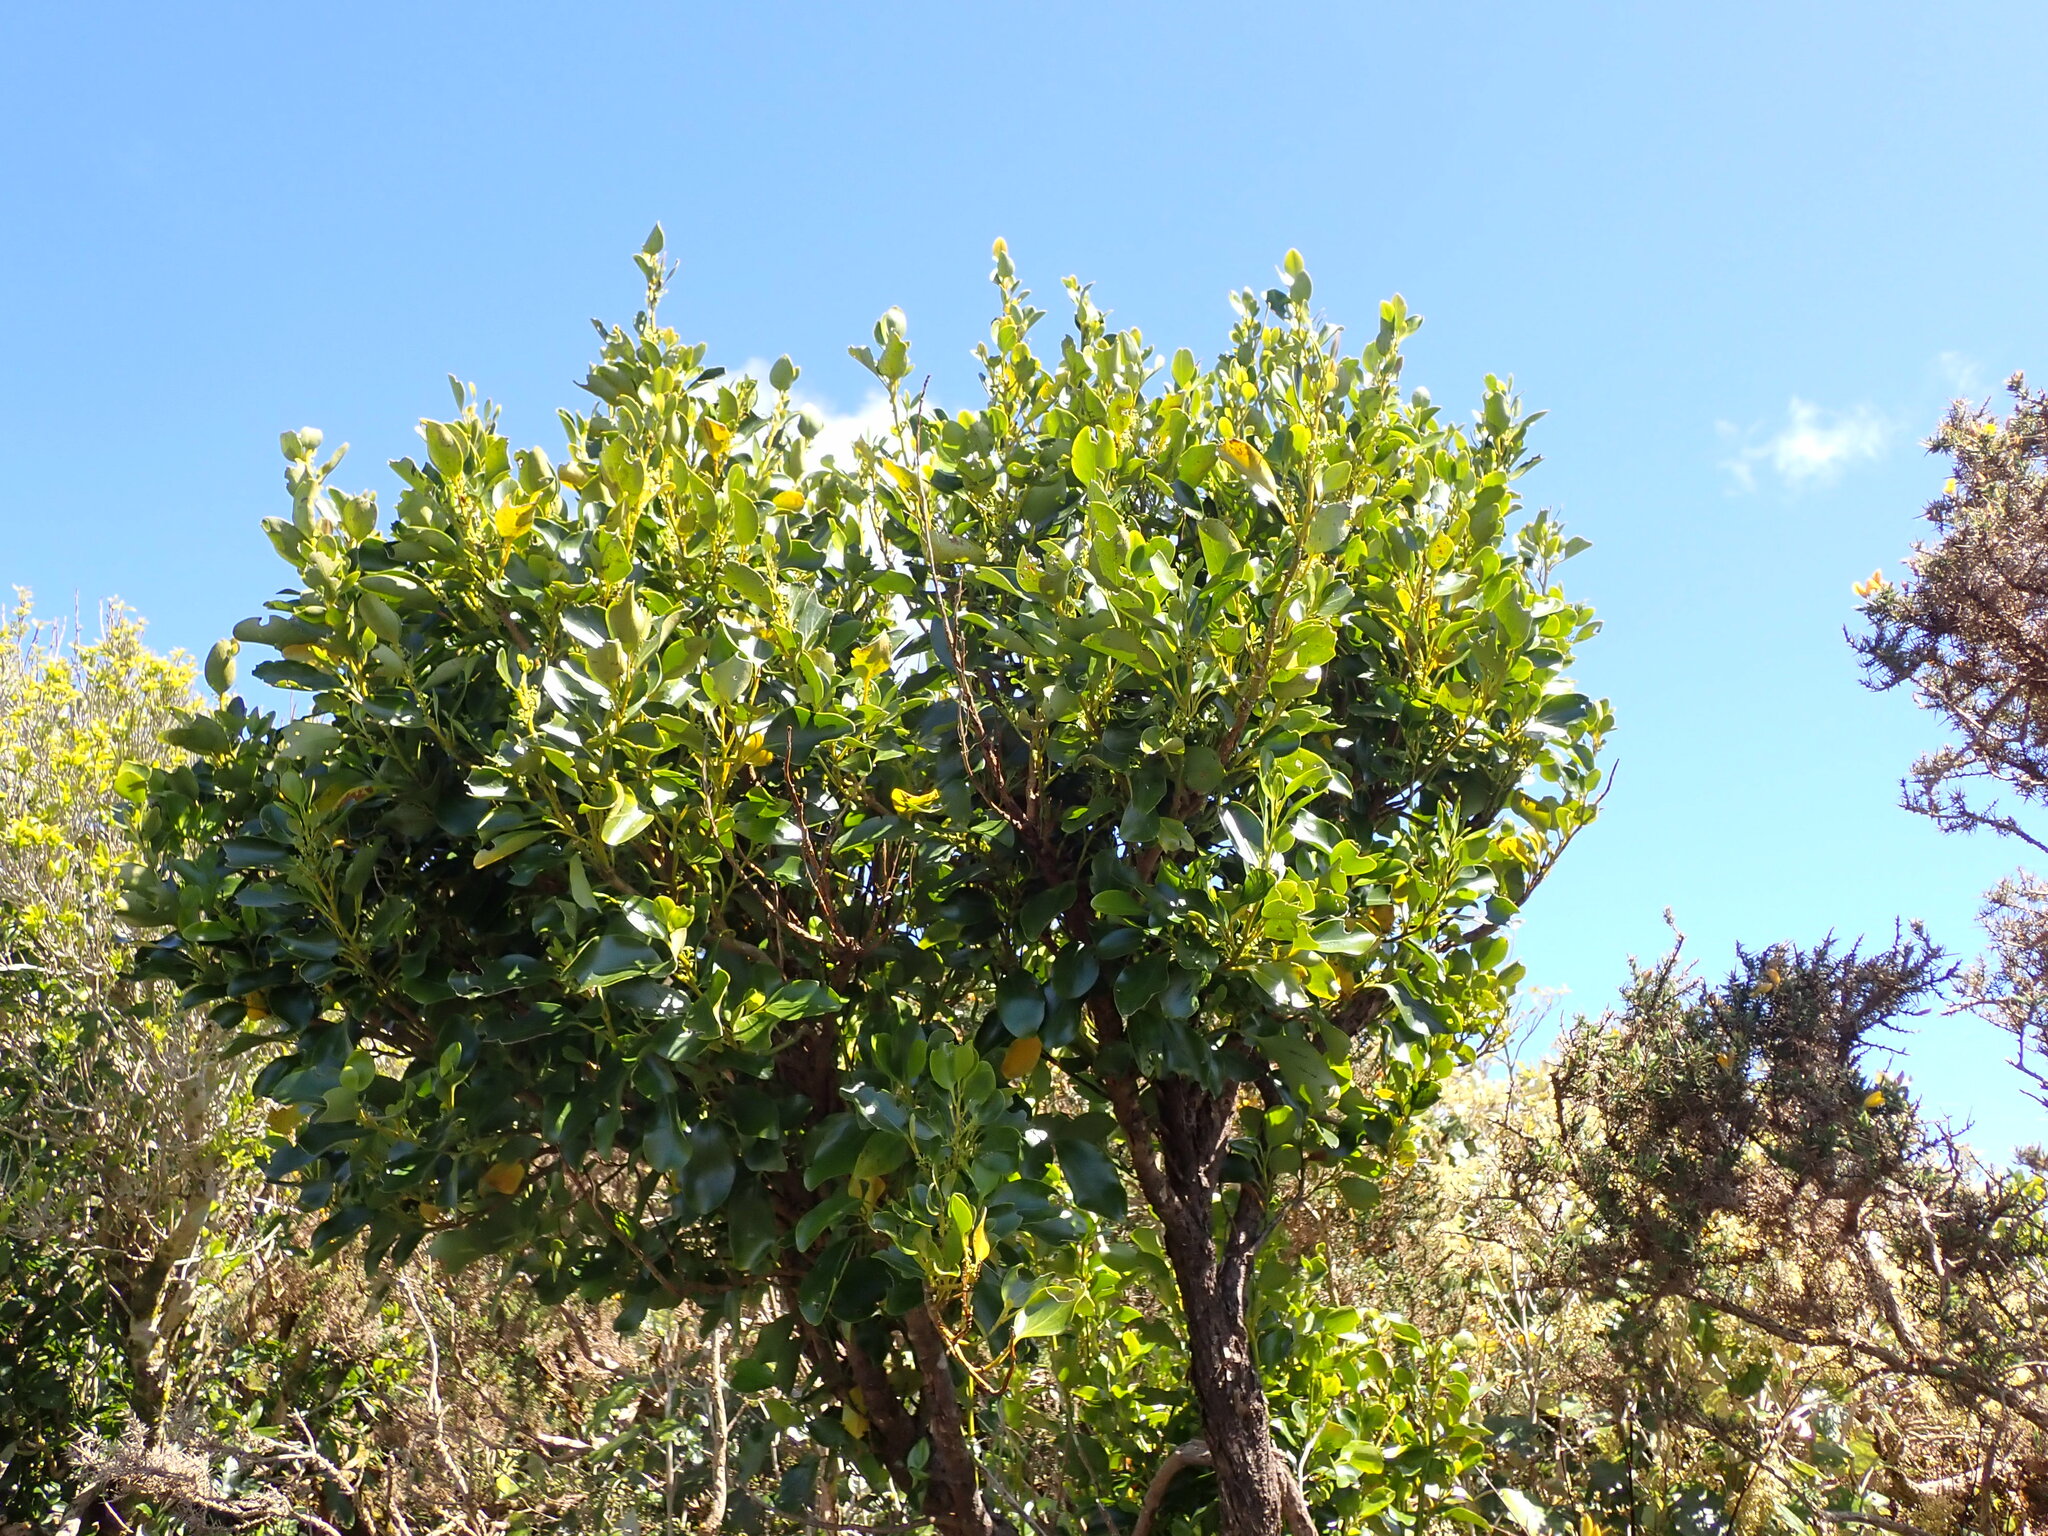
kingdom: Plantae
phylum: Tracheophyta
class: Magnoliopsida
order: Apiales
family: Griseliniaceae
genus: Griselinia
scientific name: Griselinia littoralis
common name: New zealand broadleaf
